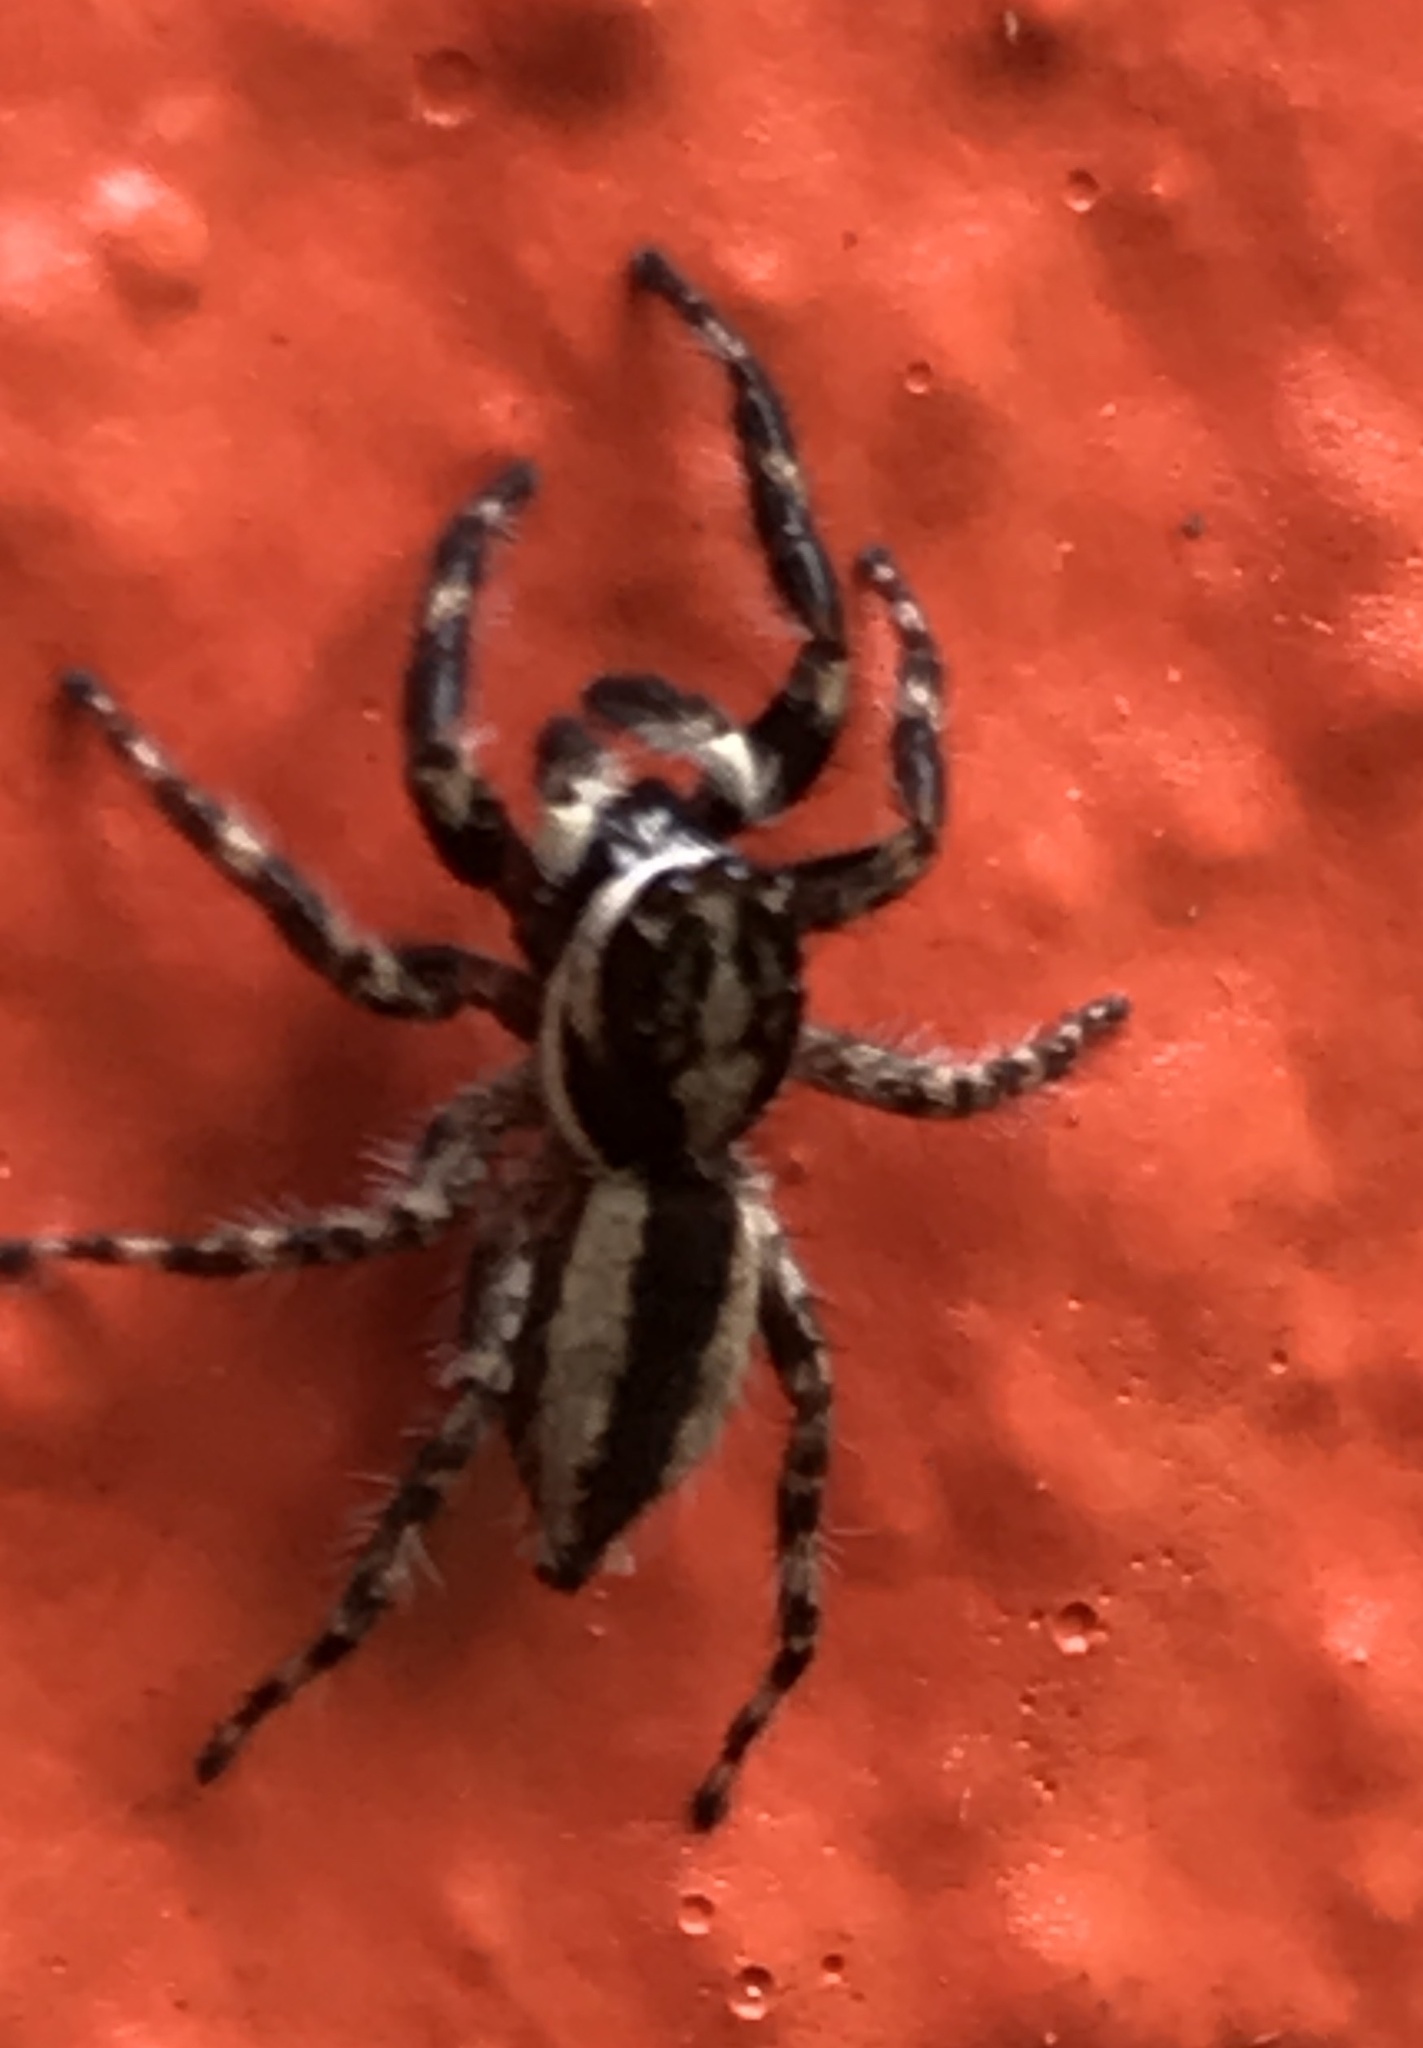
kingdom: Animalia
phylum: Arthropoda
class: Arachnida
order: Araneae
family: Salticidae
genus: Menemerus
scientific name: Menemerus bivittatus
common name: Gray wall jumper
